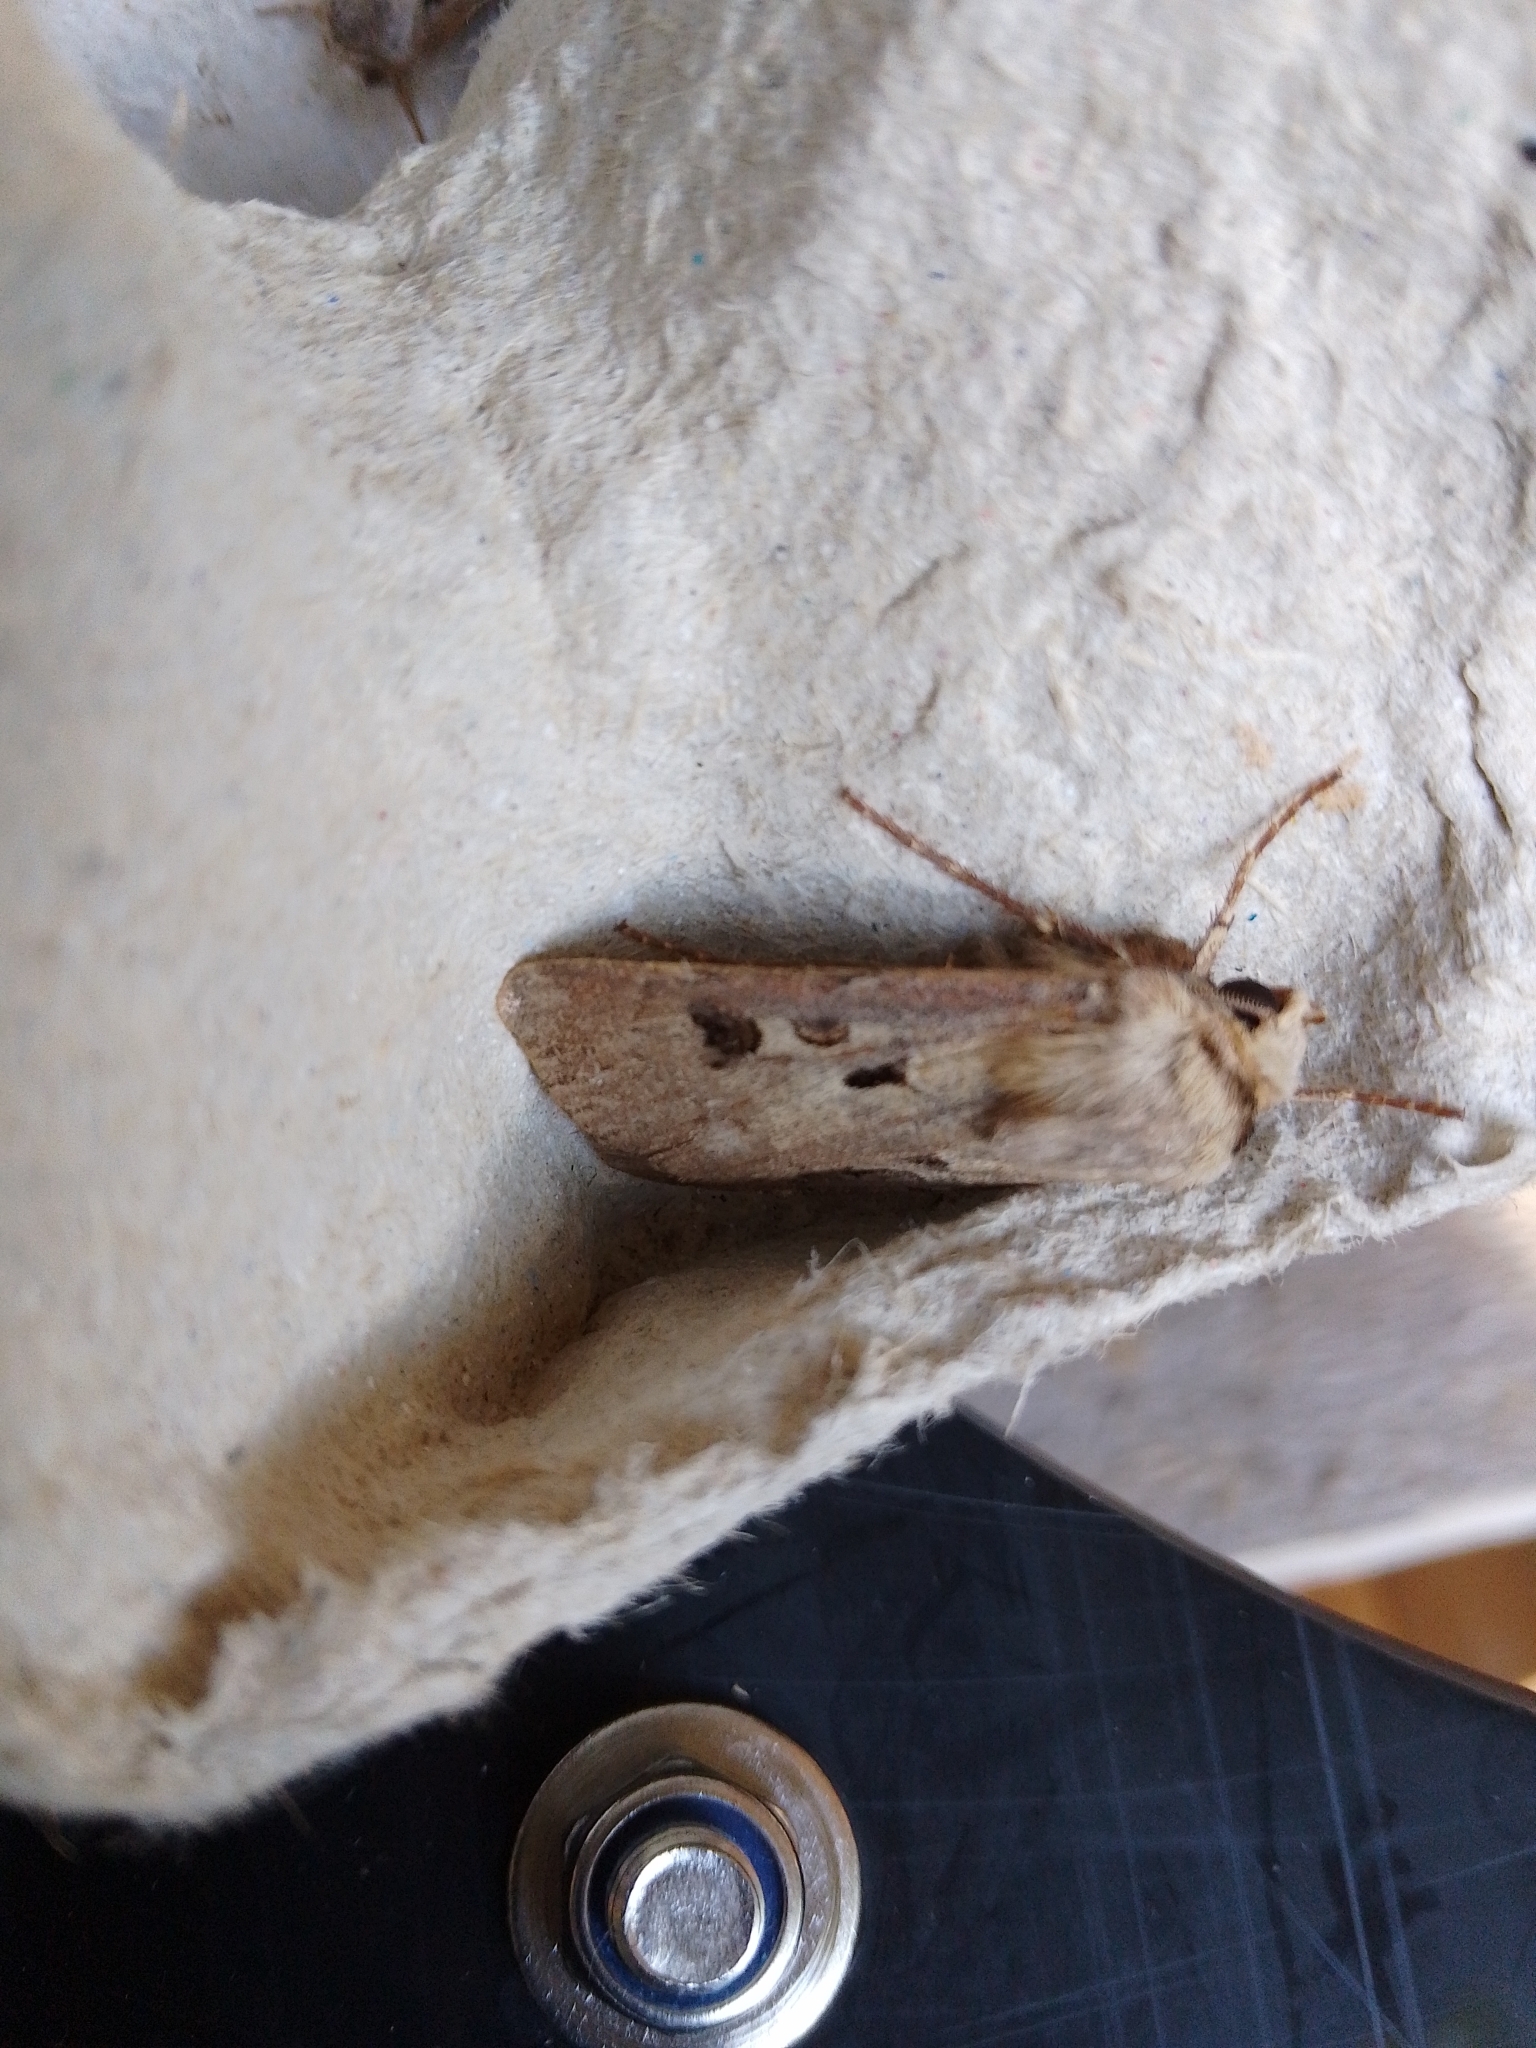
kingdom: Animalia
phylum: Arthropoda
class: Insecta
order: Lepidoptera
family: Noctuidae
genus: Agrotis
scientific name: Agrotis exclamationis
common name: Heart and dart
